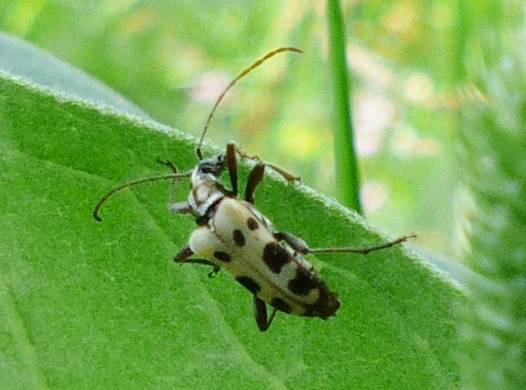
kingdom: Animalia
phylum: Arthropoda
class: Insecta
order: Coleoptera
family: Cerambycidae
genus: Evodinus
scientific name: Evodinus monticola
